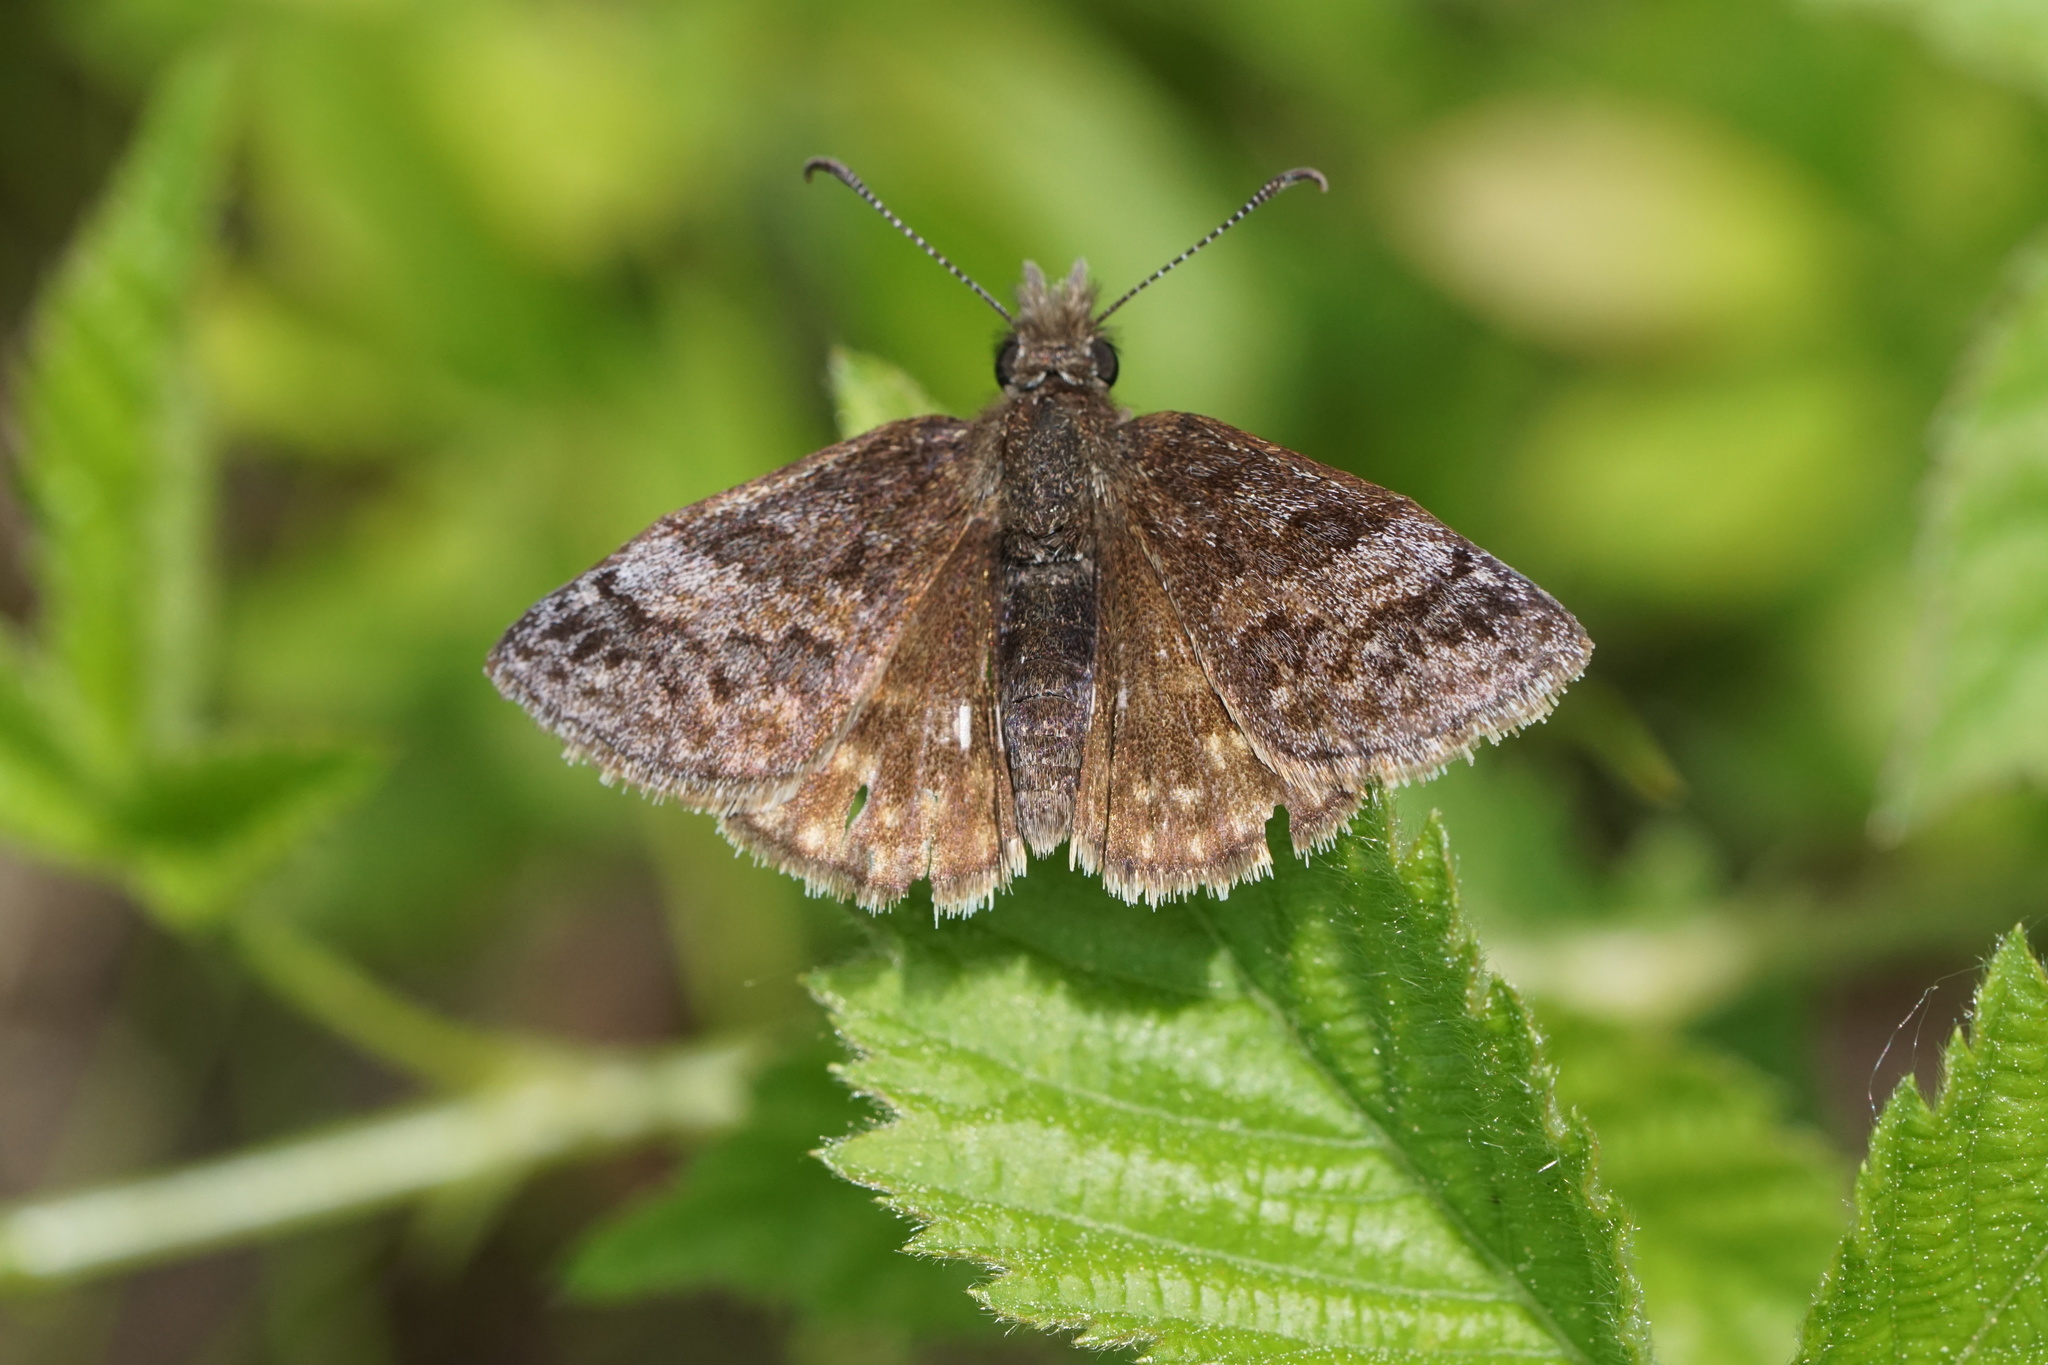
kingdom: Animalia
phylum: Arthropoda
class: Insecta
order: Lepidoptera
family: Hesperiidae
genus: Erynnis
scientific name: Erynnis icelus
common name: Dreamy duskywing
